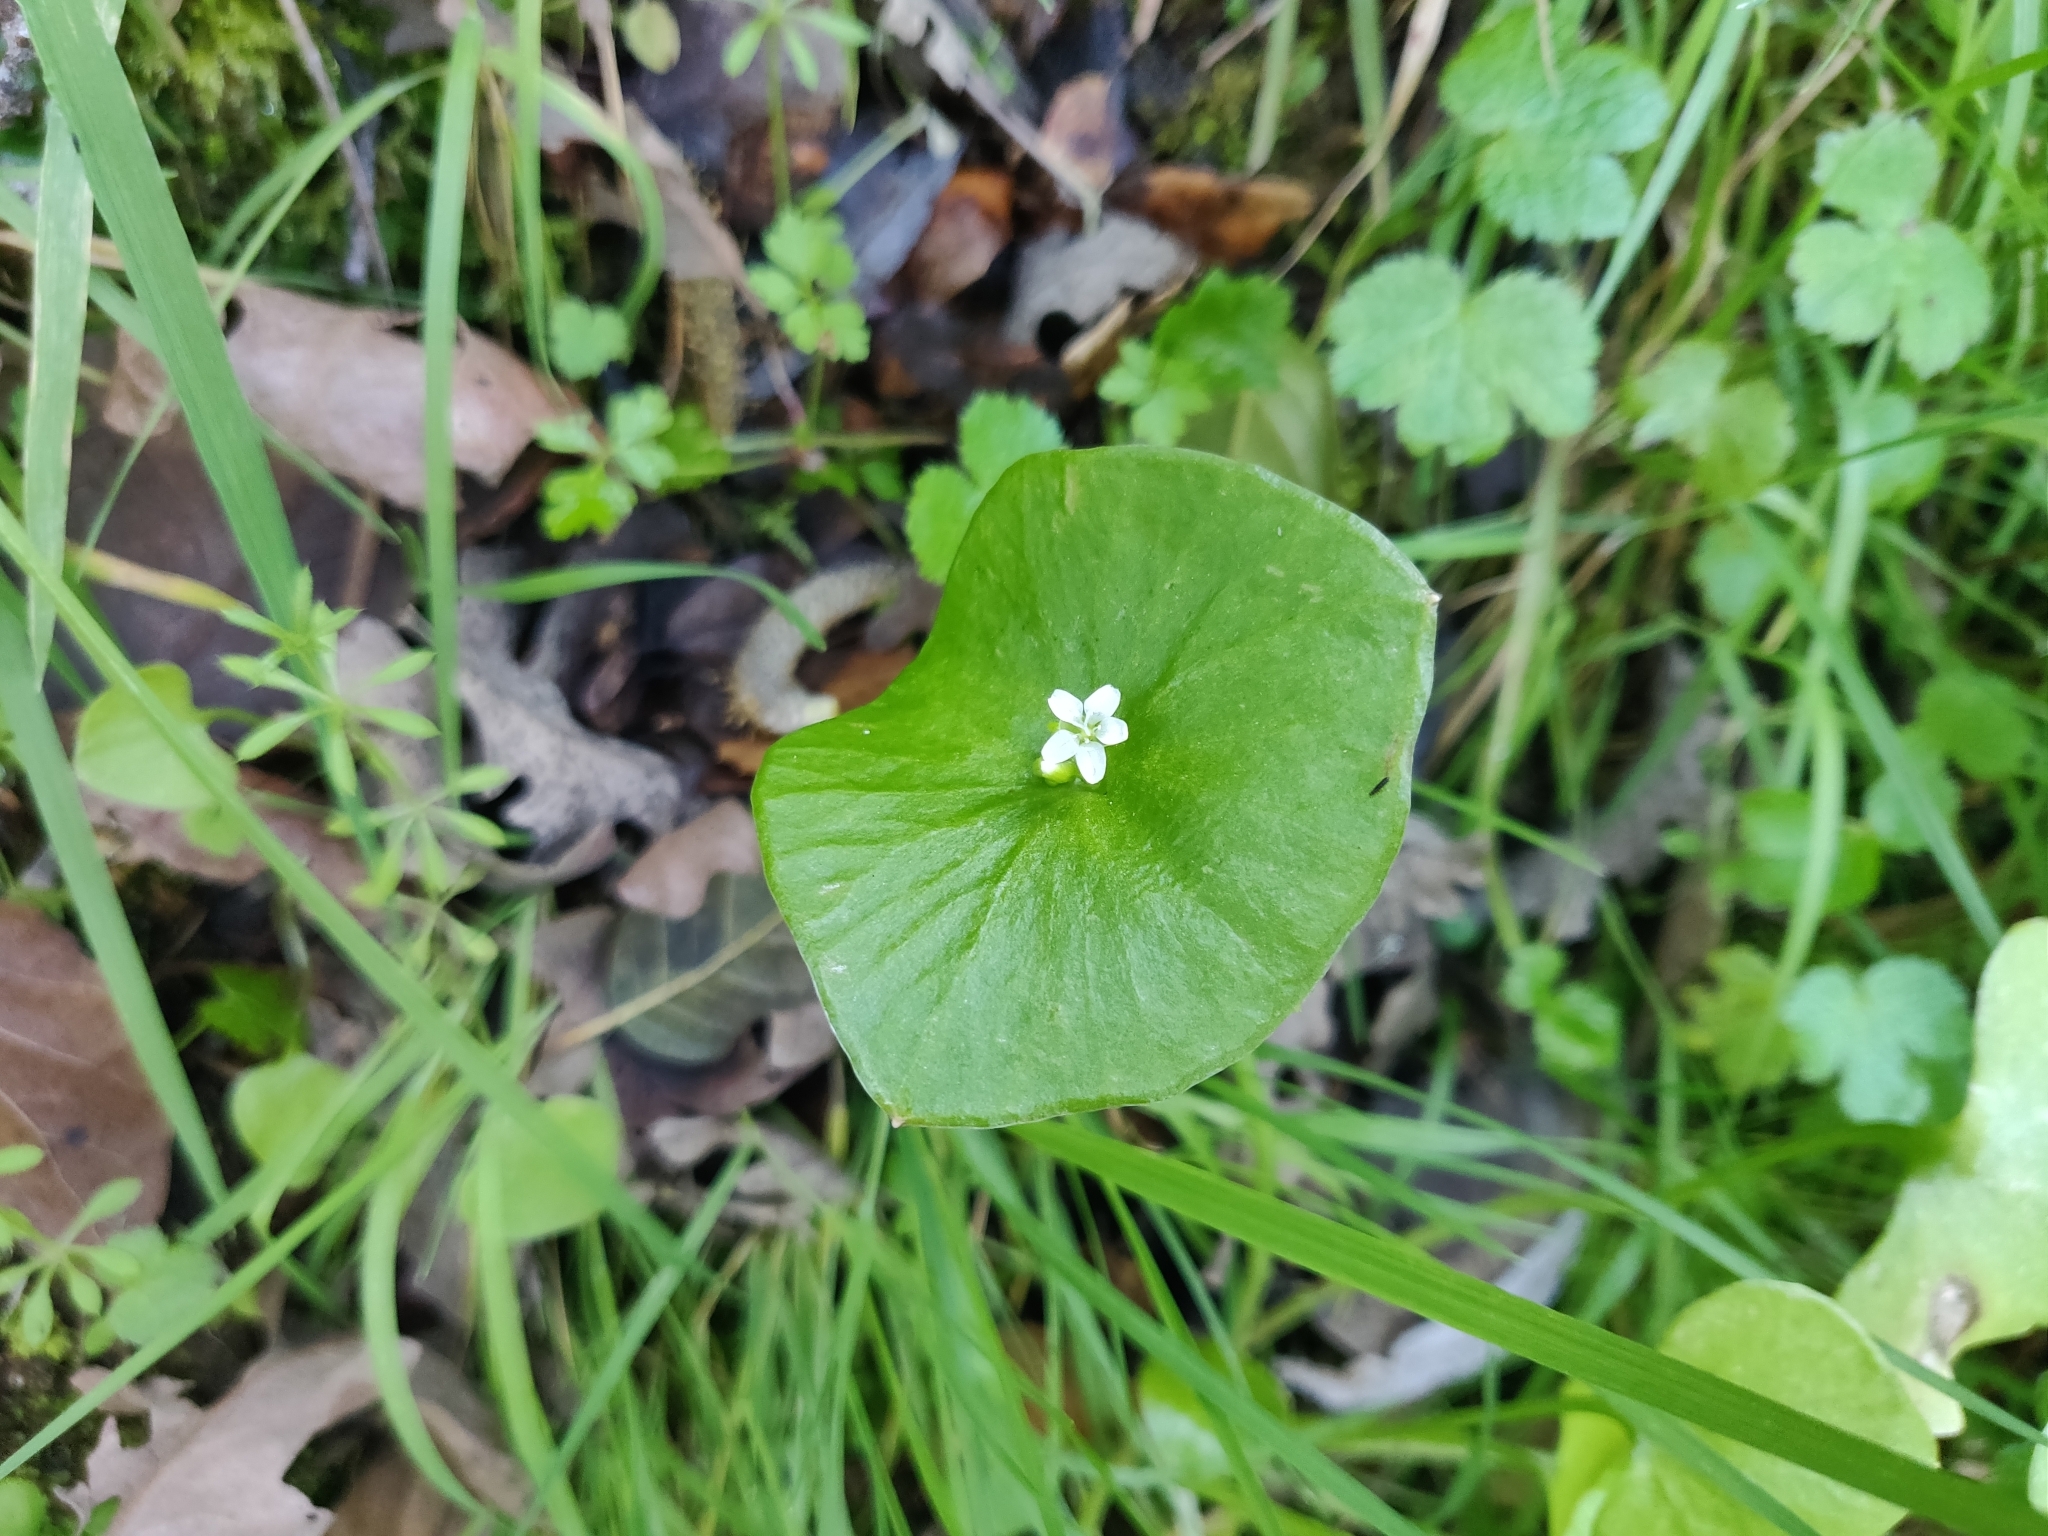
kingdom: Plantae
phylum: Tracheophyta
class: Magnoliopsida
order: Caryophyllales
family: Montiaceae
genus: Claytonia
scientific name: Claytonia perfoliata
